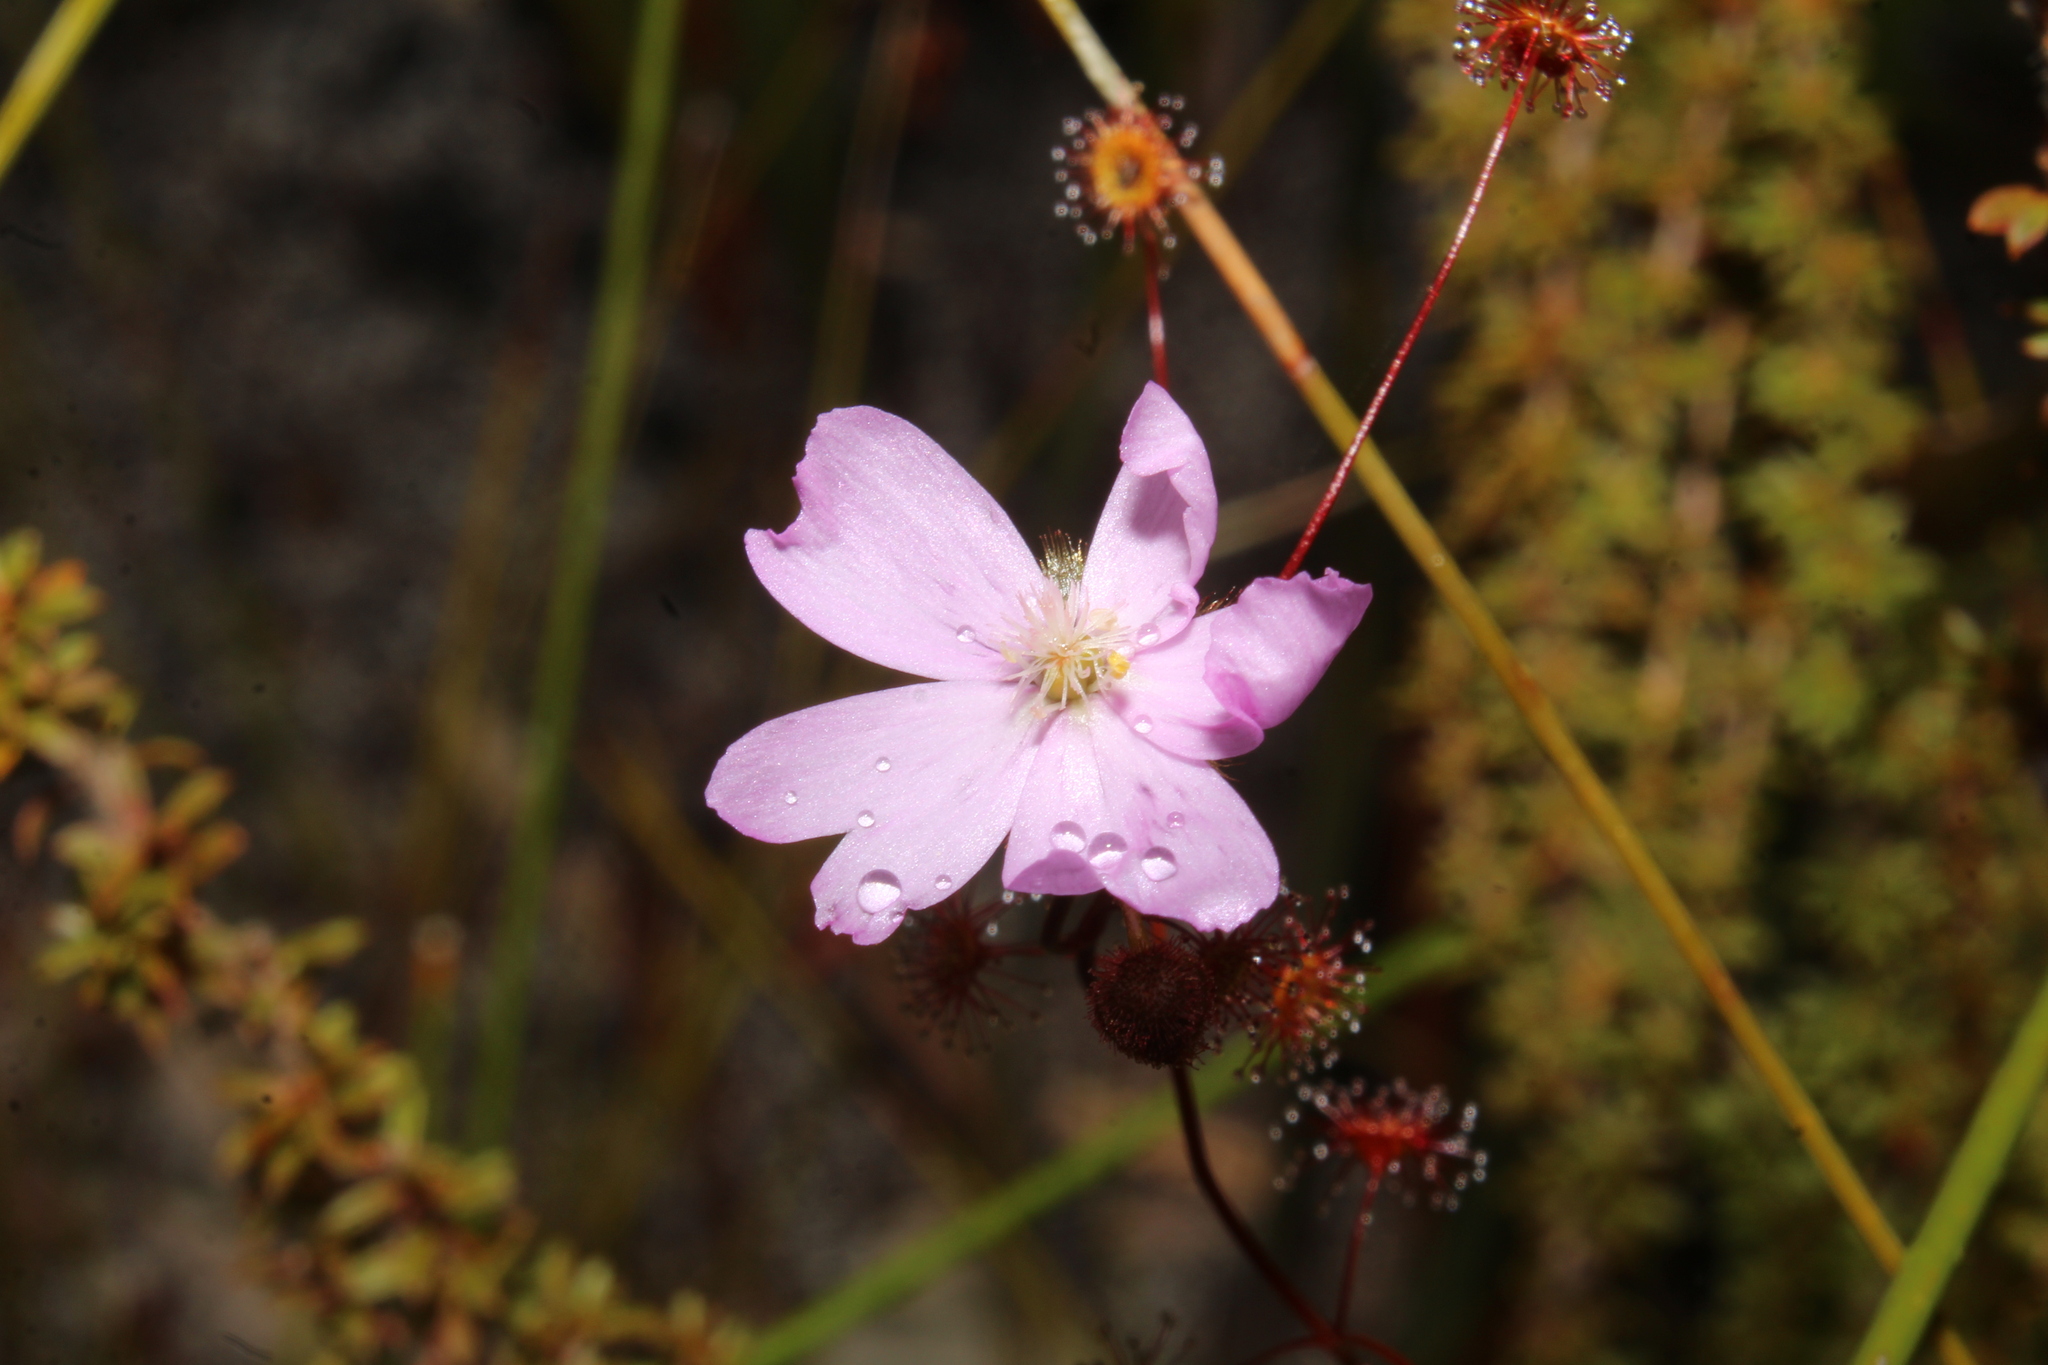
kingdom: Plantae
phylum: Tracheophyta
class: Magnoliopsida
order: Caryophyllales
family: Droseraceae
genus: Drosera
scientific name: Drosera
